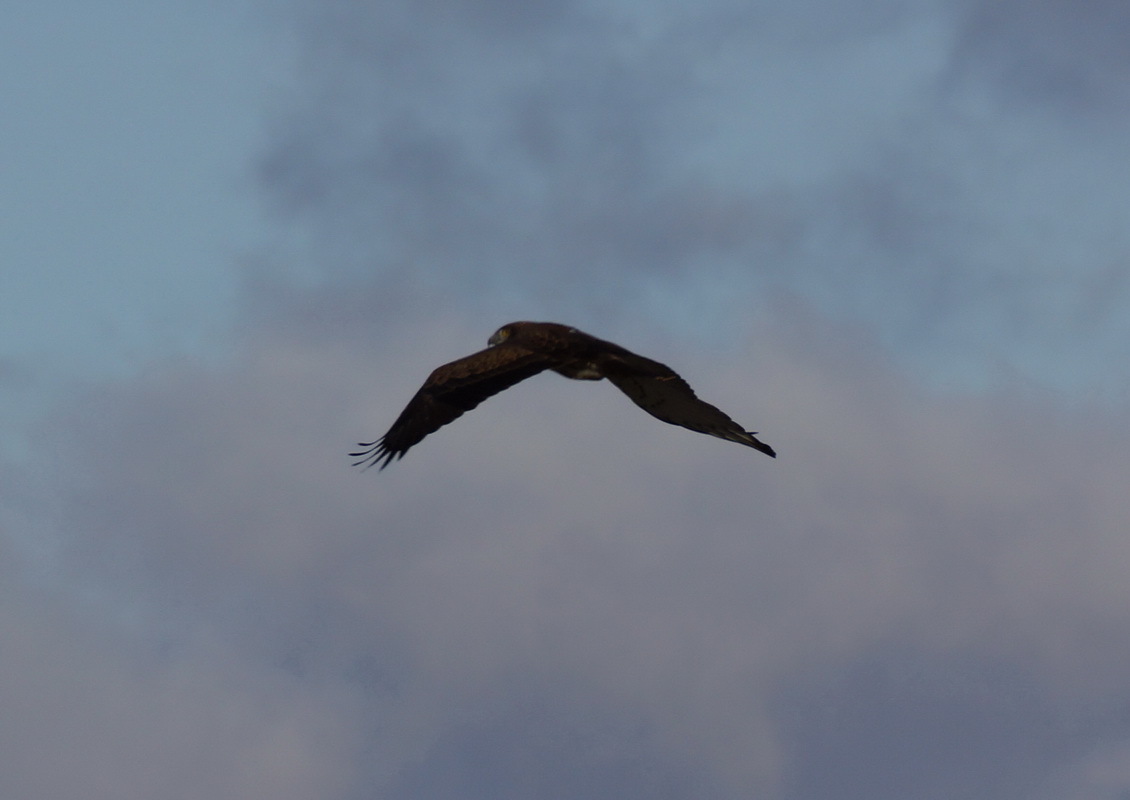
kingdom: Animalia
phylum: Chordata
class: Aves
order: Accipitriformes
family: Accipitridae
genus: Circaetus
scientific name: Circaetus gallicus
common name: Short-toed snake eagle
